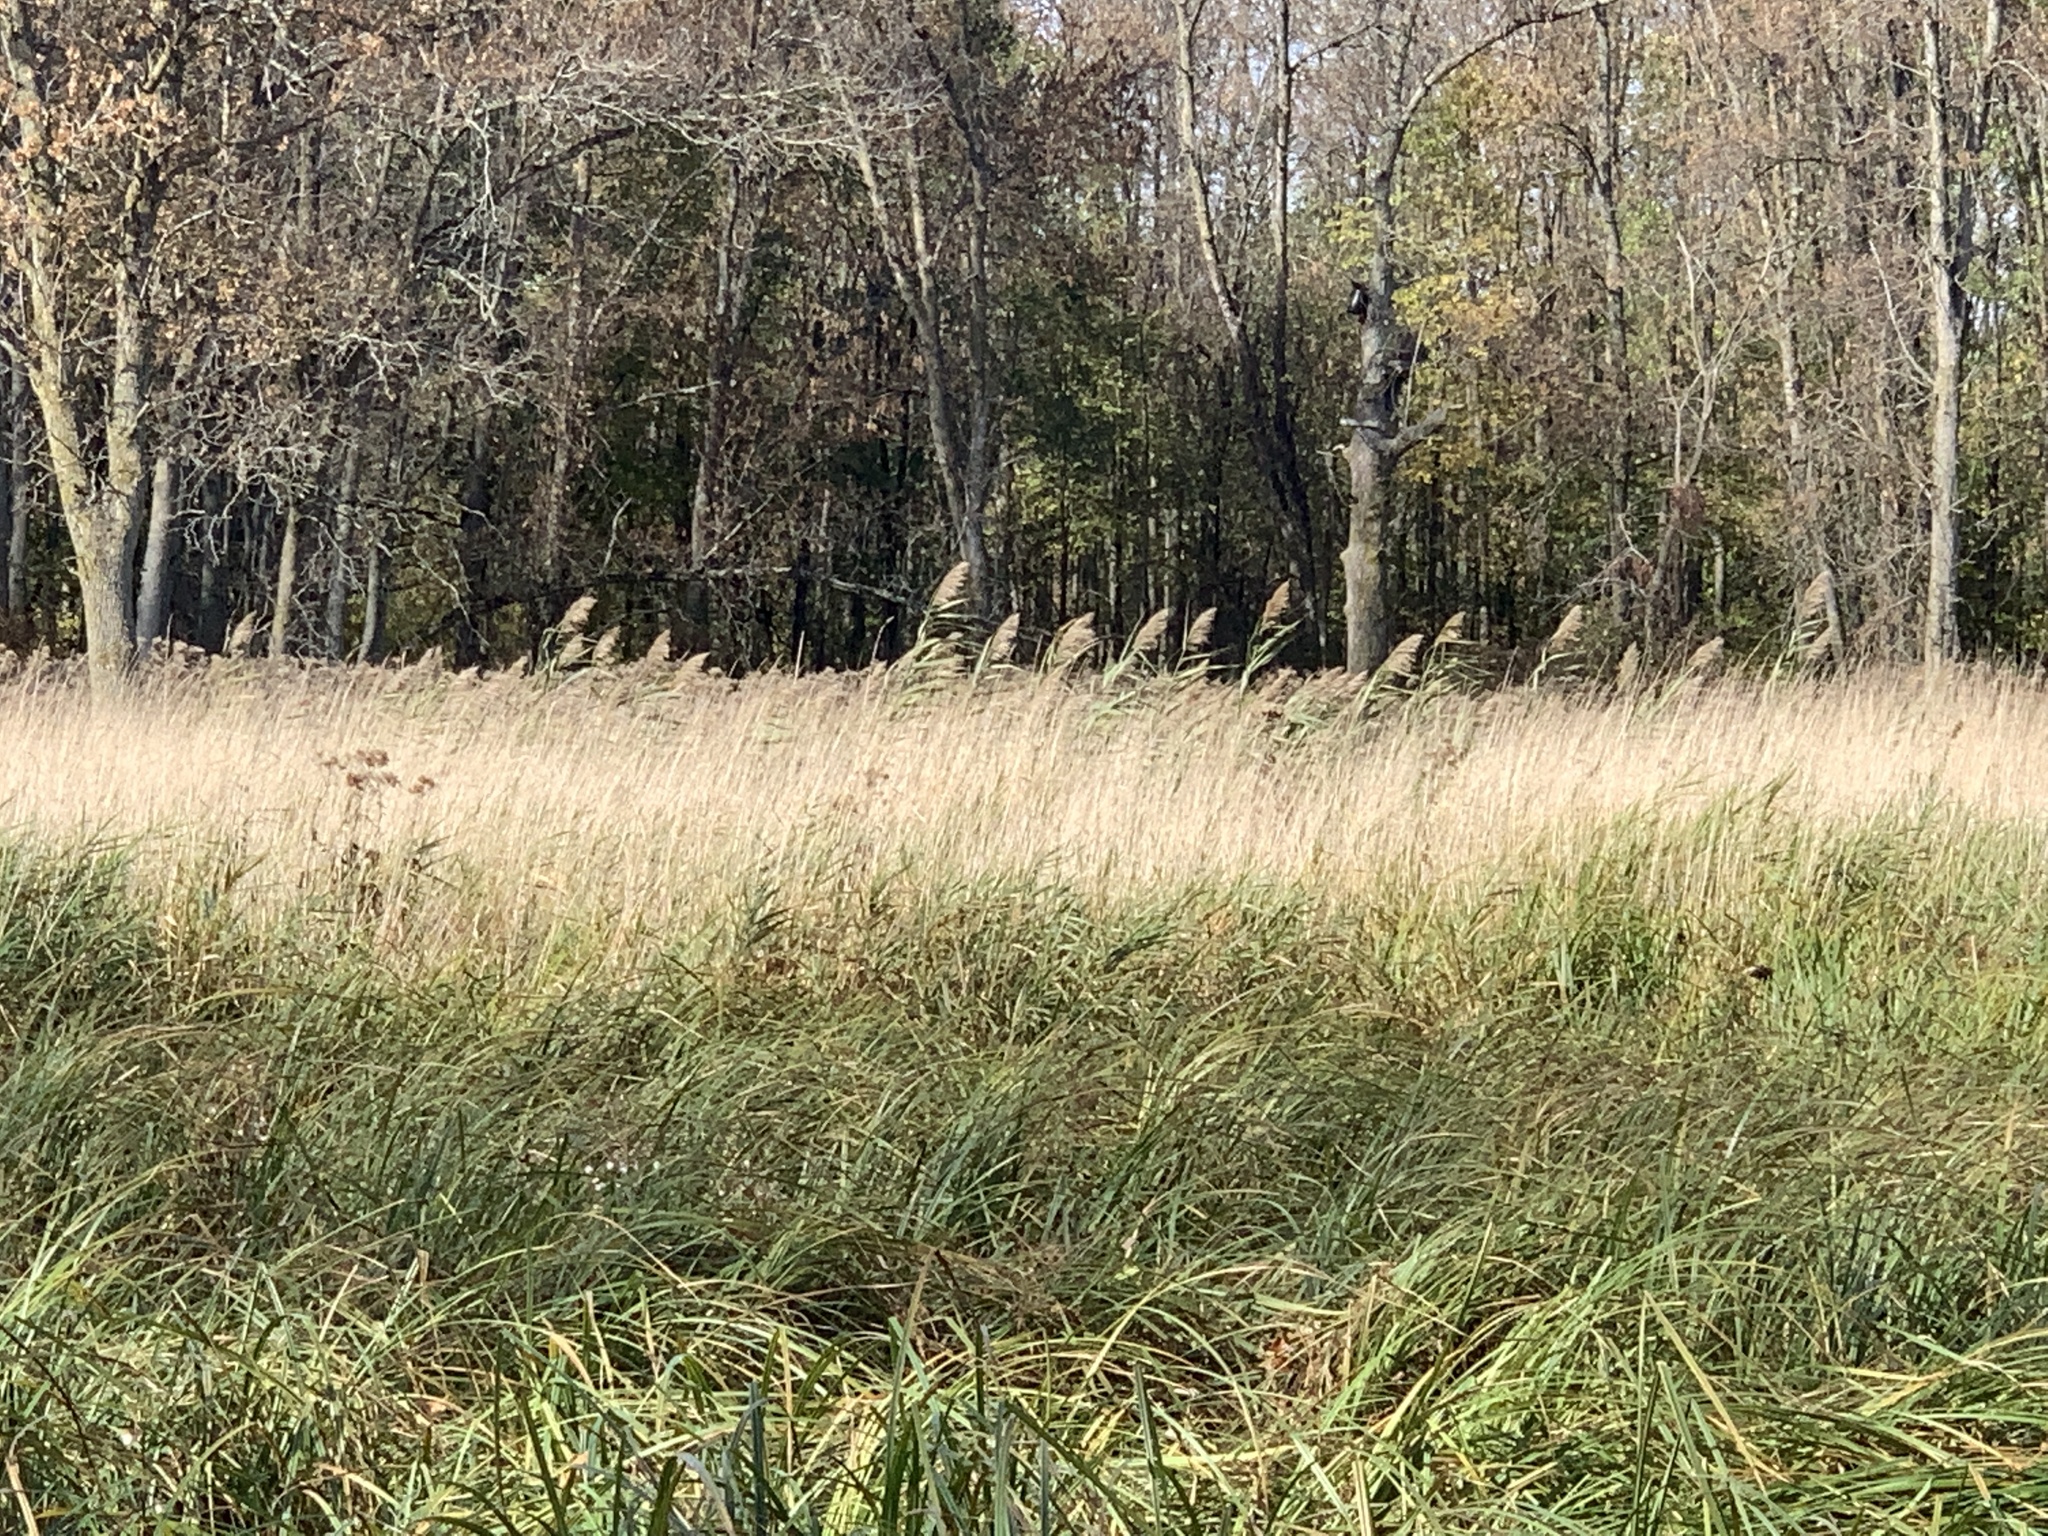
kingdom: Plantae
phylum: Tracheophyta
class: Liliopsida
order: Poales
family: Poaceae
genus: Phragmites
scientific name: Phragmites australis
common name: Common reed
